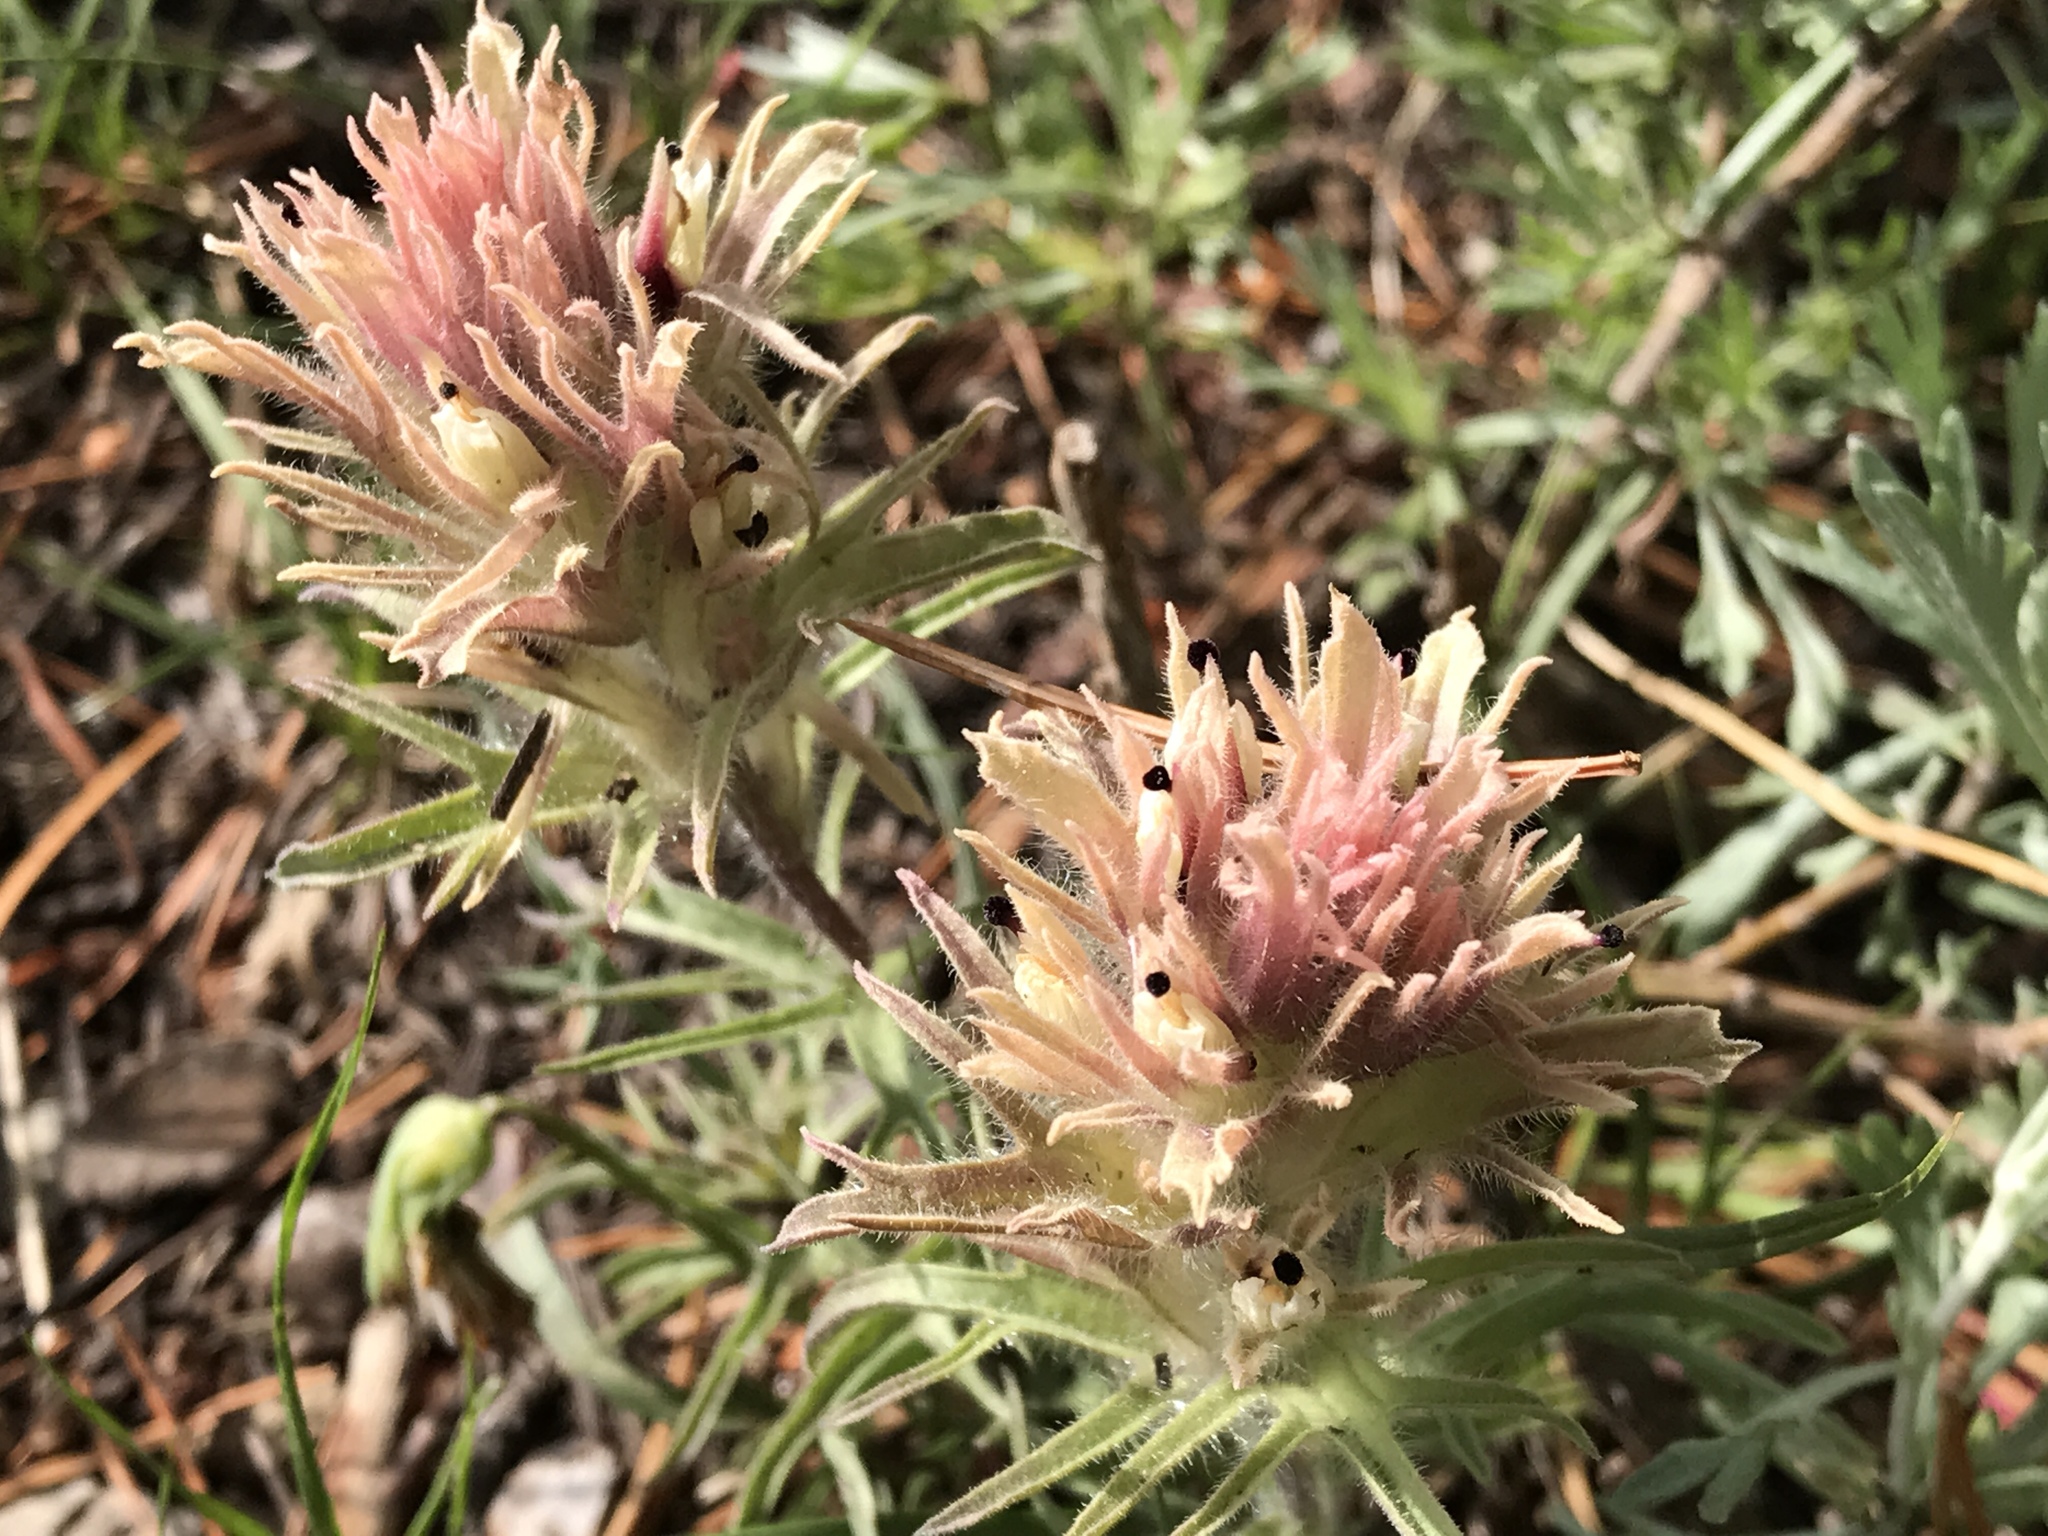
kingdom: Plantae
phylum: Tracheophyta
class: Magnoliopsida
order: Lamiales
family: Orobanchaceae
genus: Castilleja
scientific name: Castilleja nana
